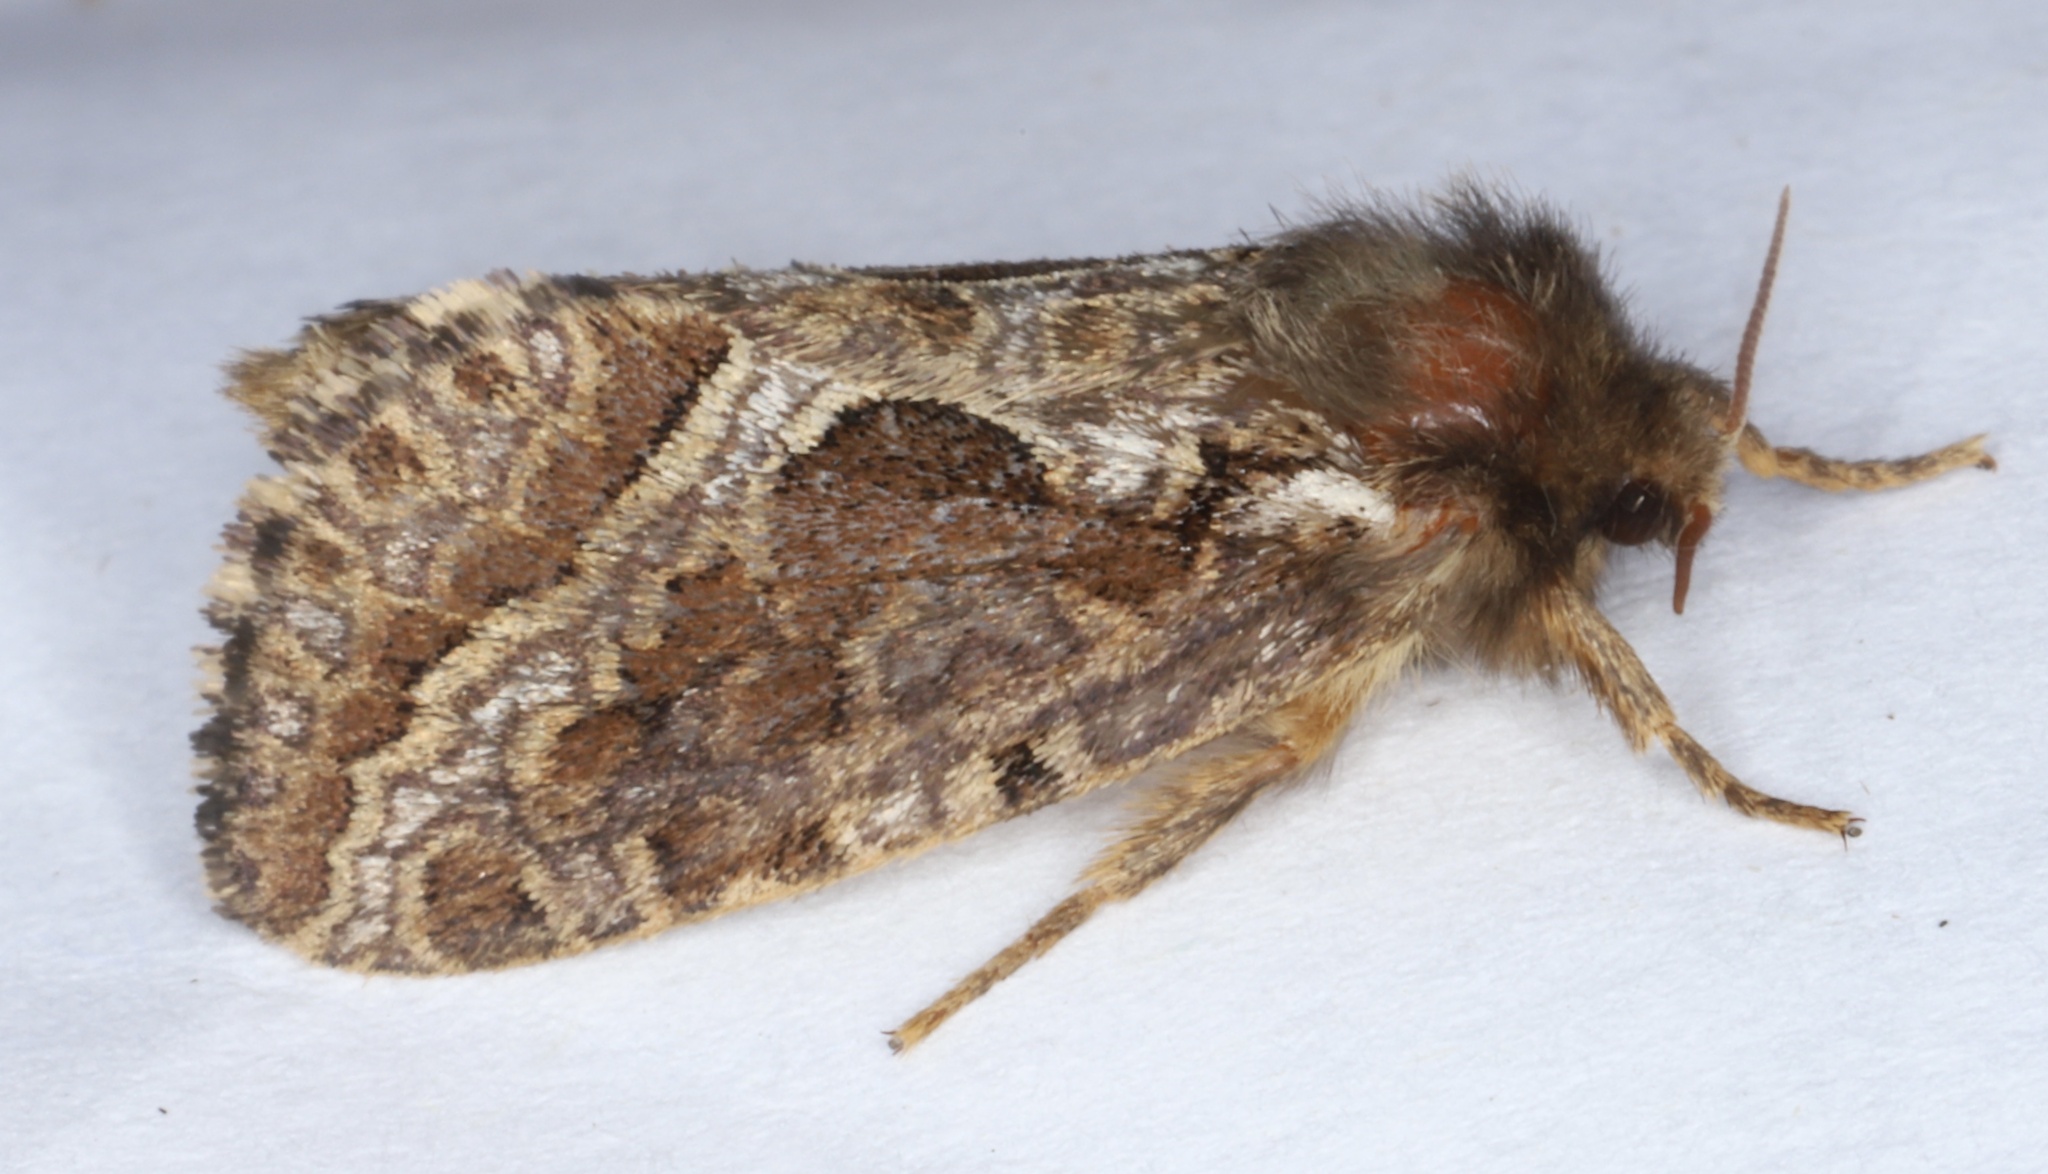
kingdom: Animalia
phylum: Arthropoda
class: Insecta
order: Lepidoptera
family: Hepialidae
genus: Korscheltellus
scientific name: Korscheltellus gracilis
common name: Conifer swift moth
